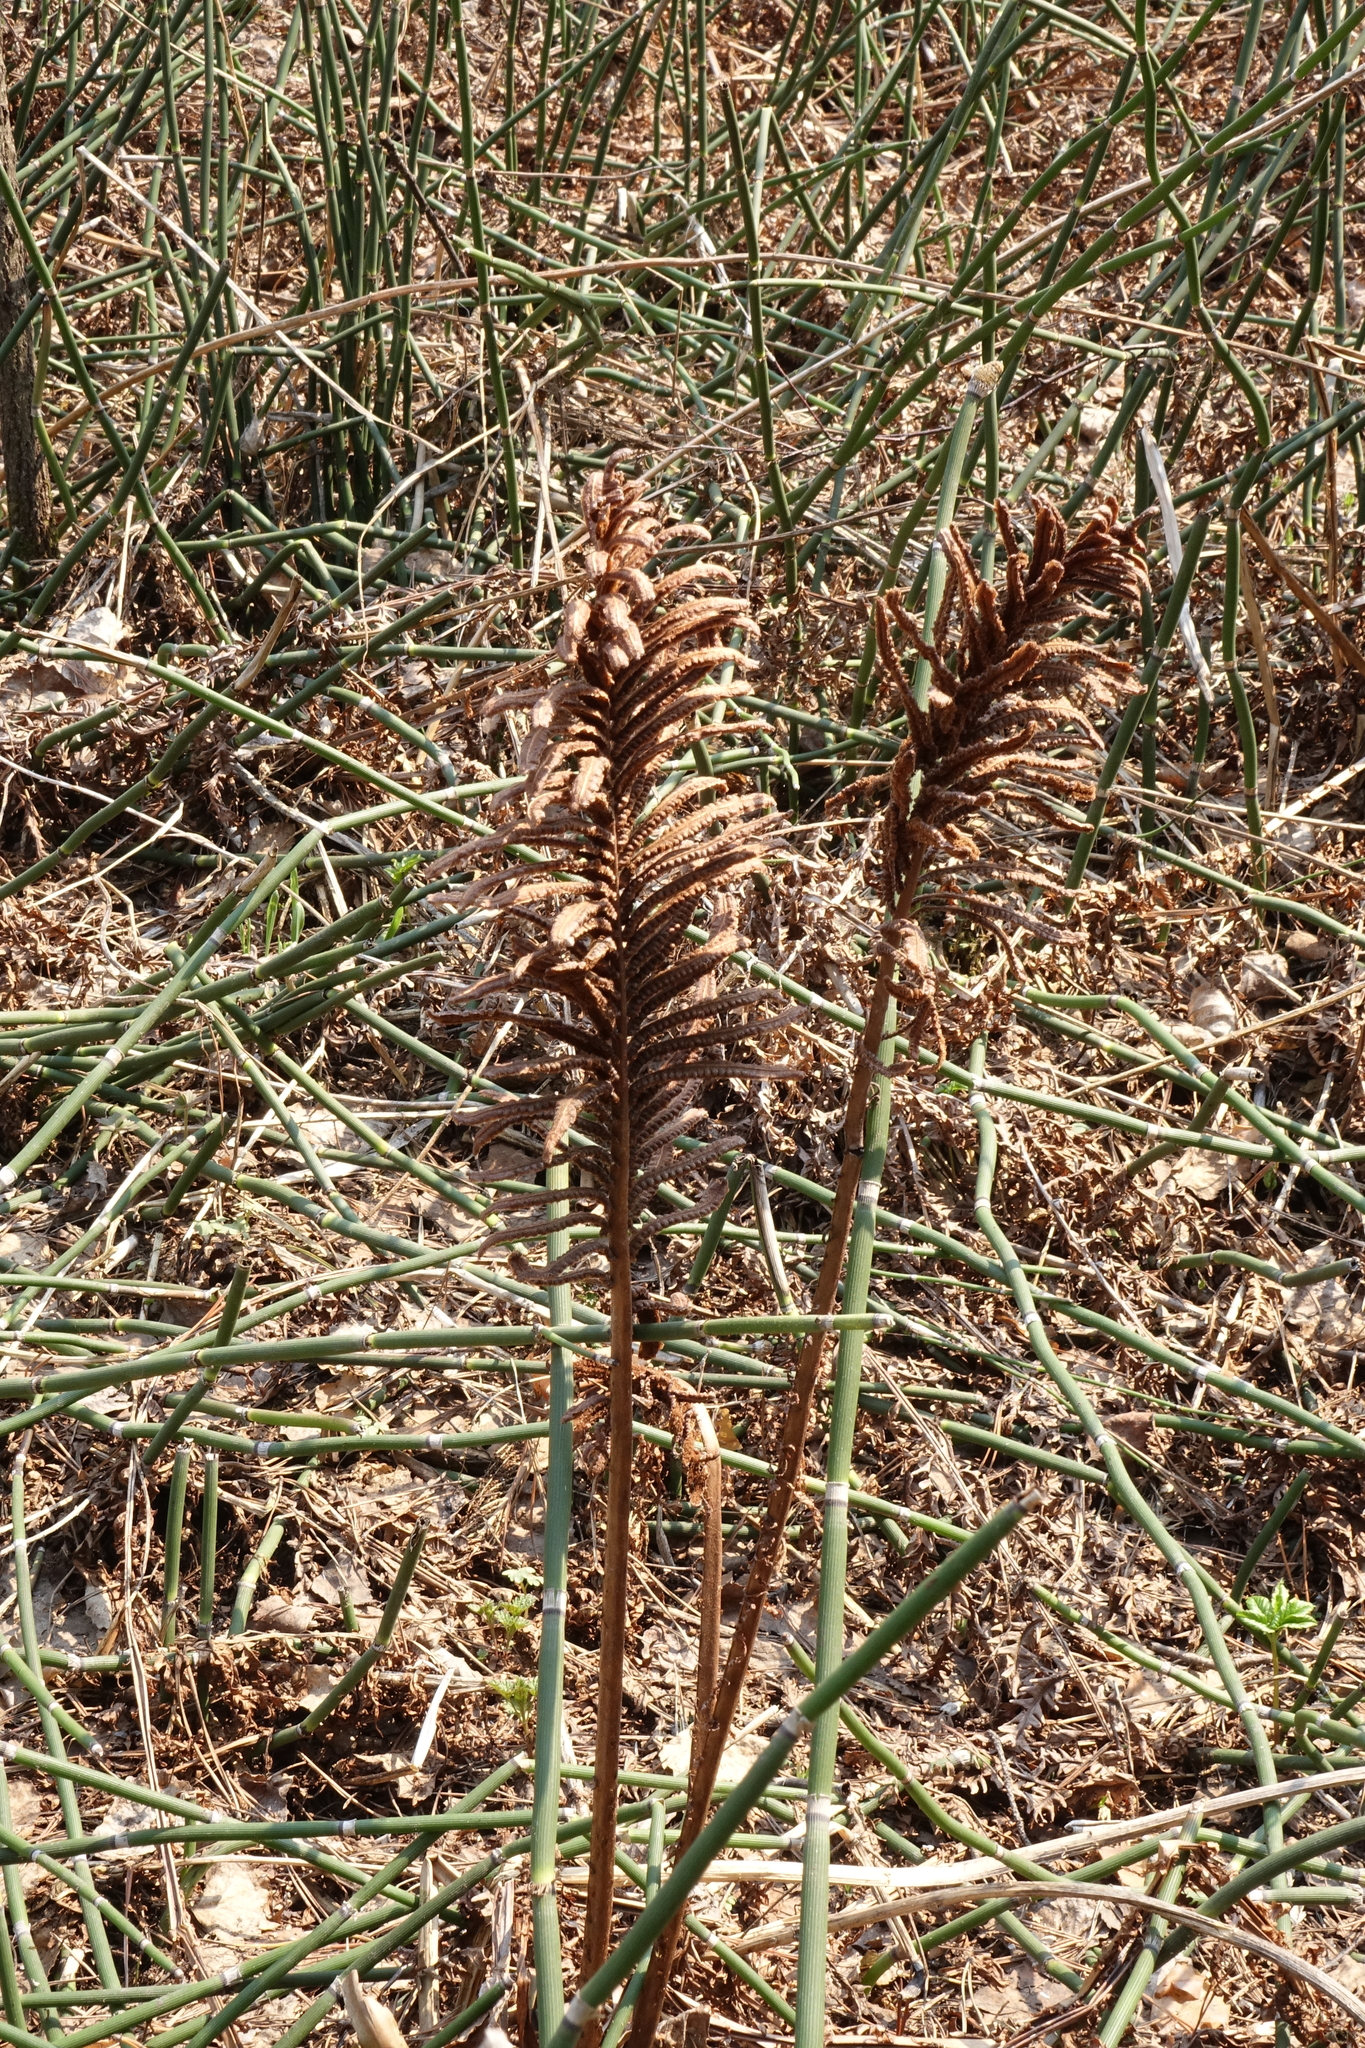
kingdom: Plantae
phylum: Tracheophyta
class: Polypodiopsida
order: Polypodiales
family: Onocleaceae
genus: Matteuccia
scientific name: Matteuccia struthiopteris
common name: Ostrich fern
